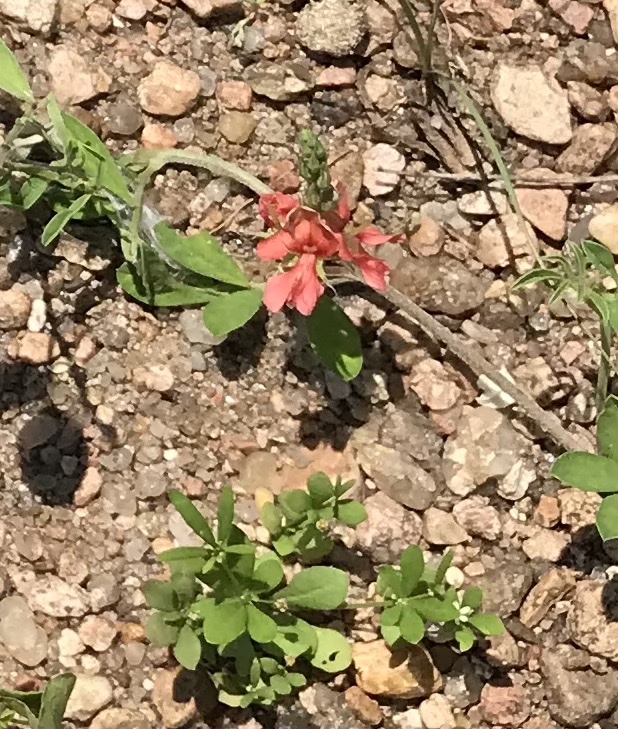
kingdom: Plantae
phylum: Tracheophyta
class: Magnoliopsida
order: Fabales
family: Fabaceae
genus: Indigofera
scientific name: Indigofera miniata
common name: Coast indigo
